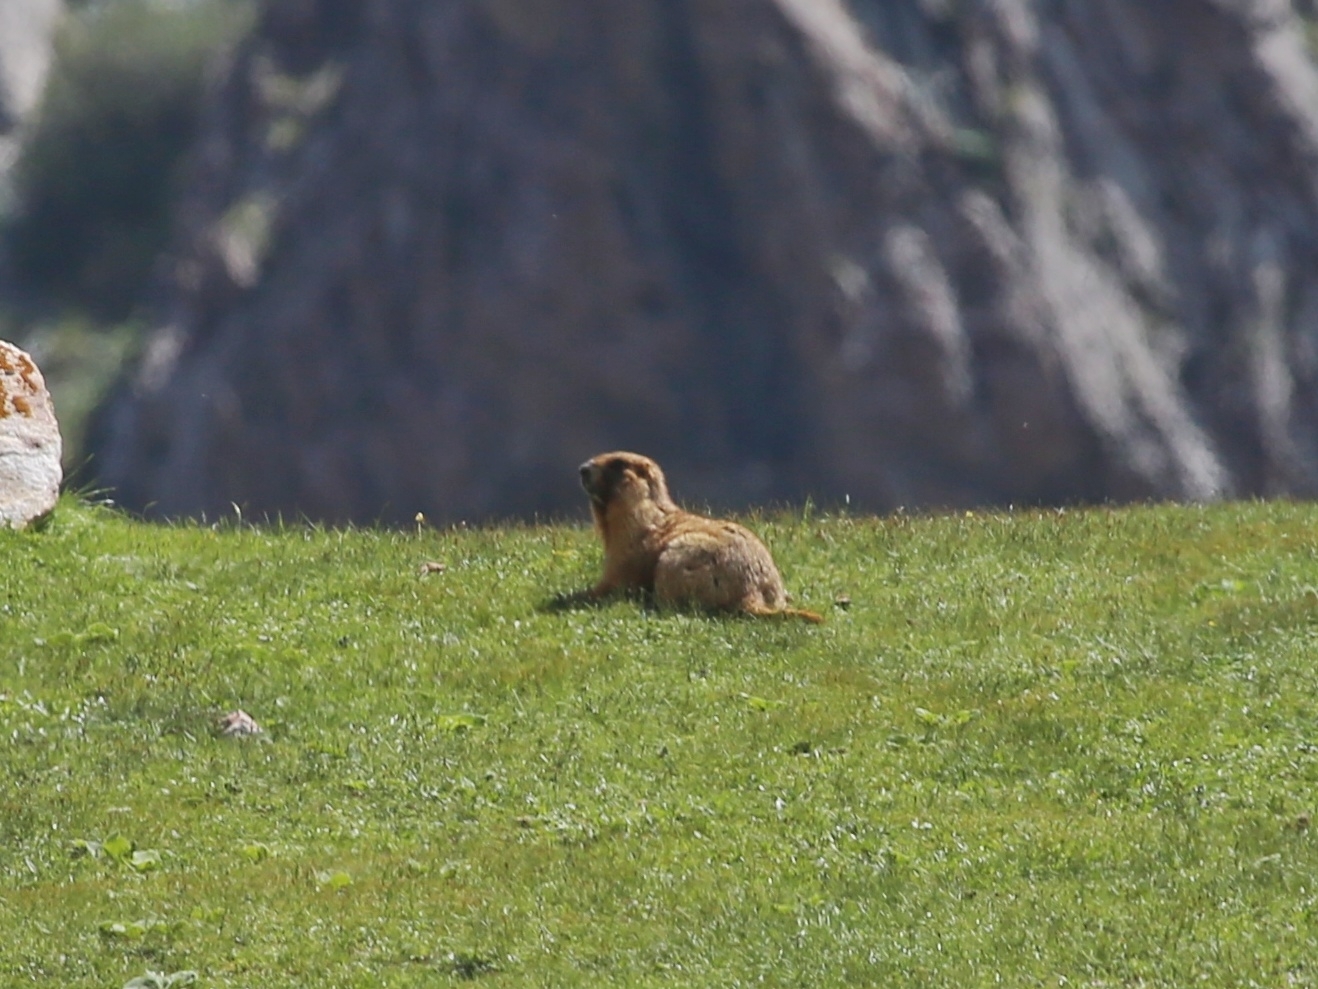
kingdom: Animalia
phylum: Chordata
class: Mammalia
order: Rodentia
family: Sciuridae
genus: Marmota
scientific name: Marmota baibacina
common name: Gray marmot
